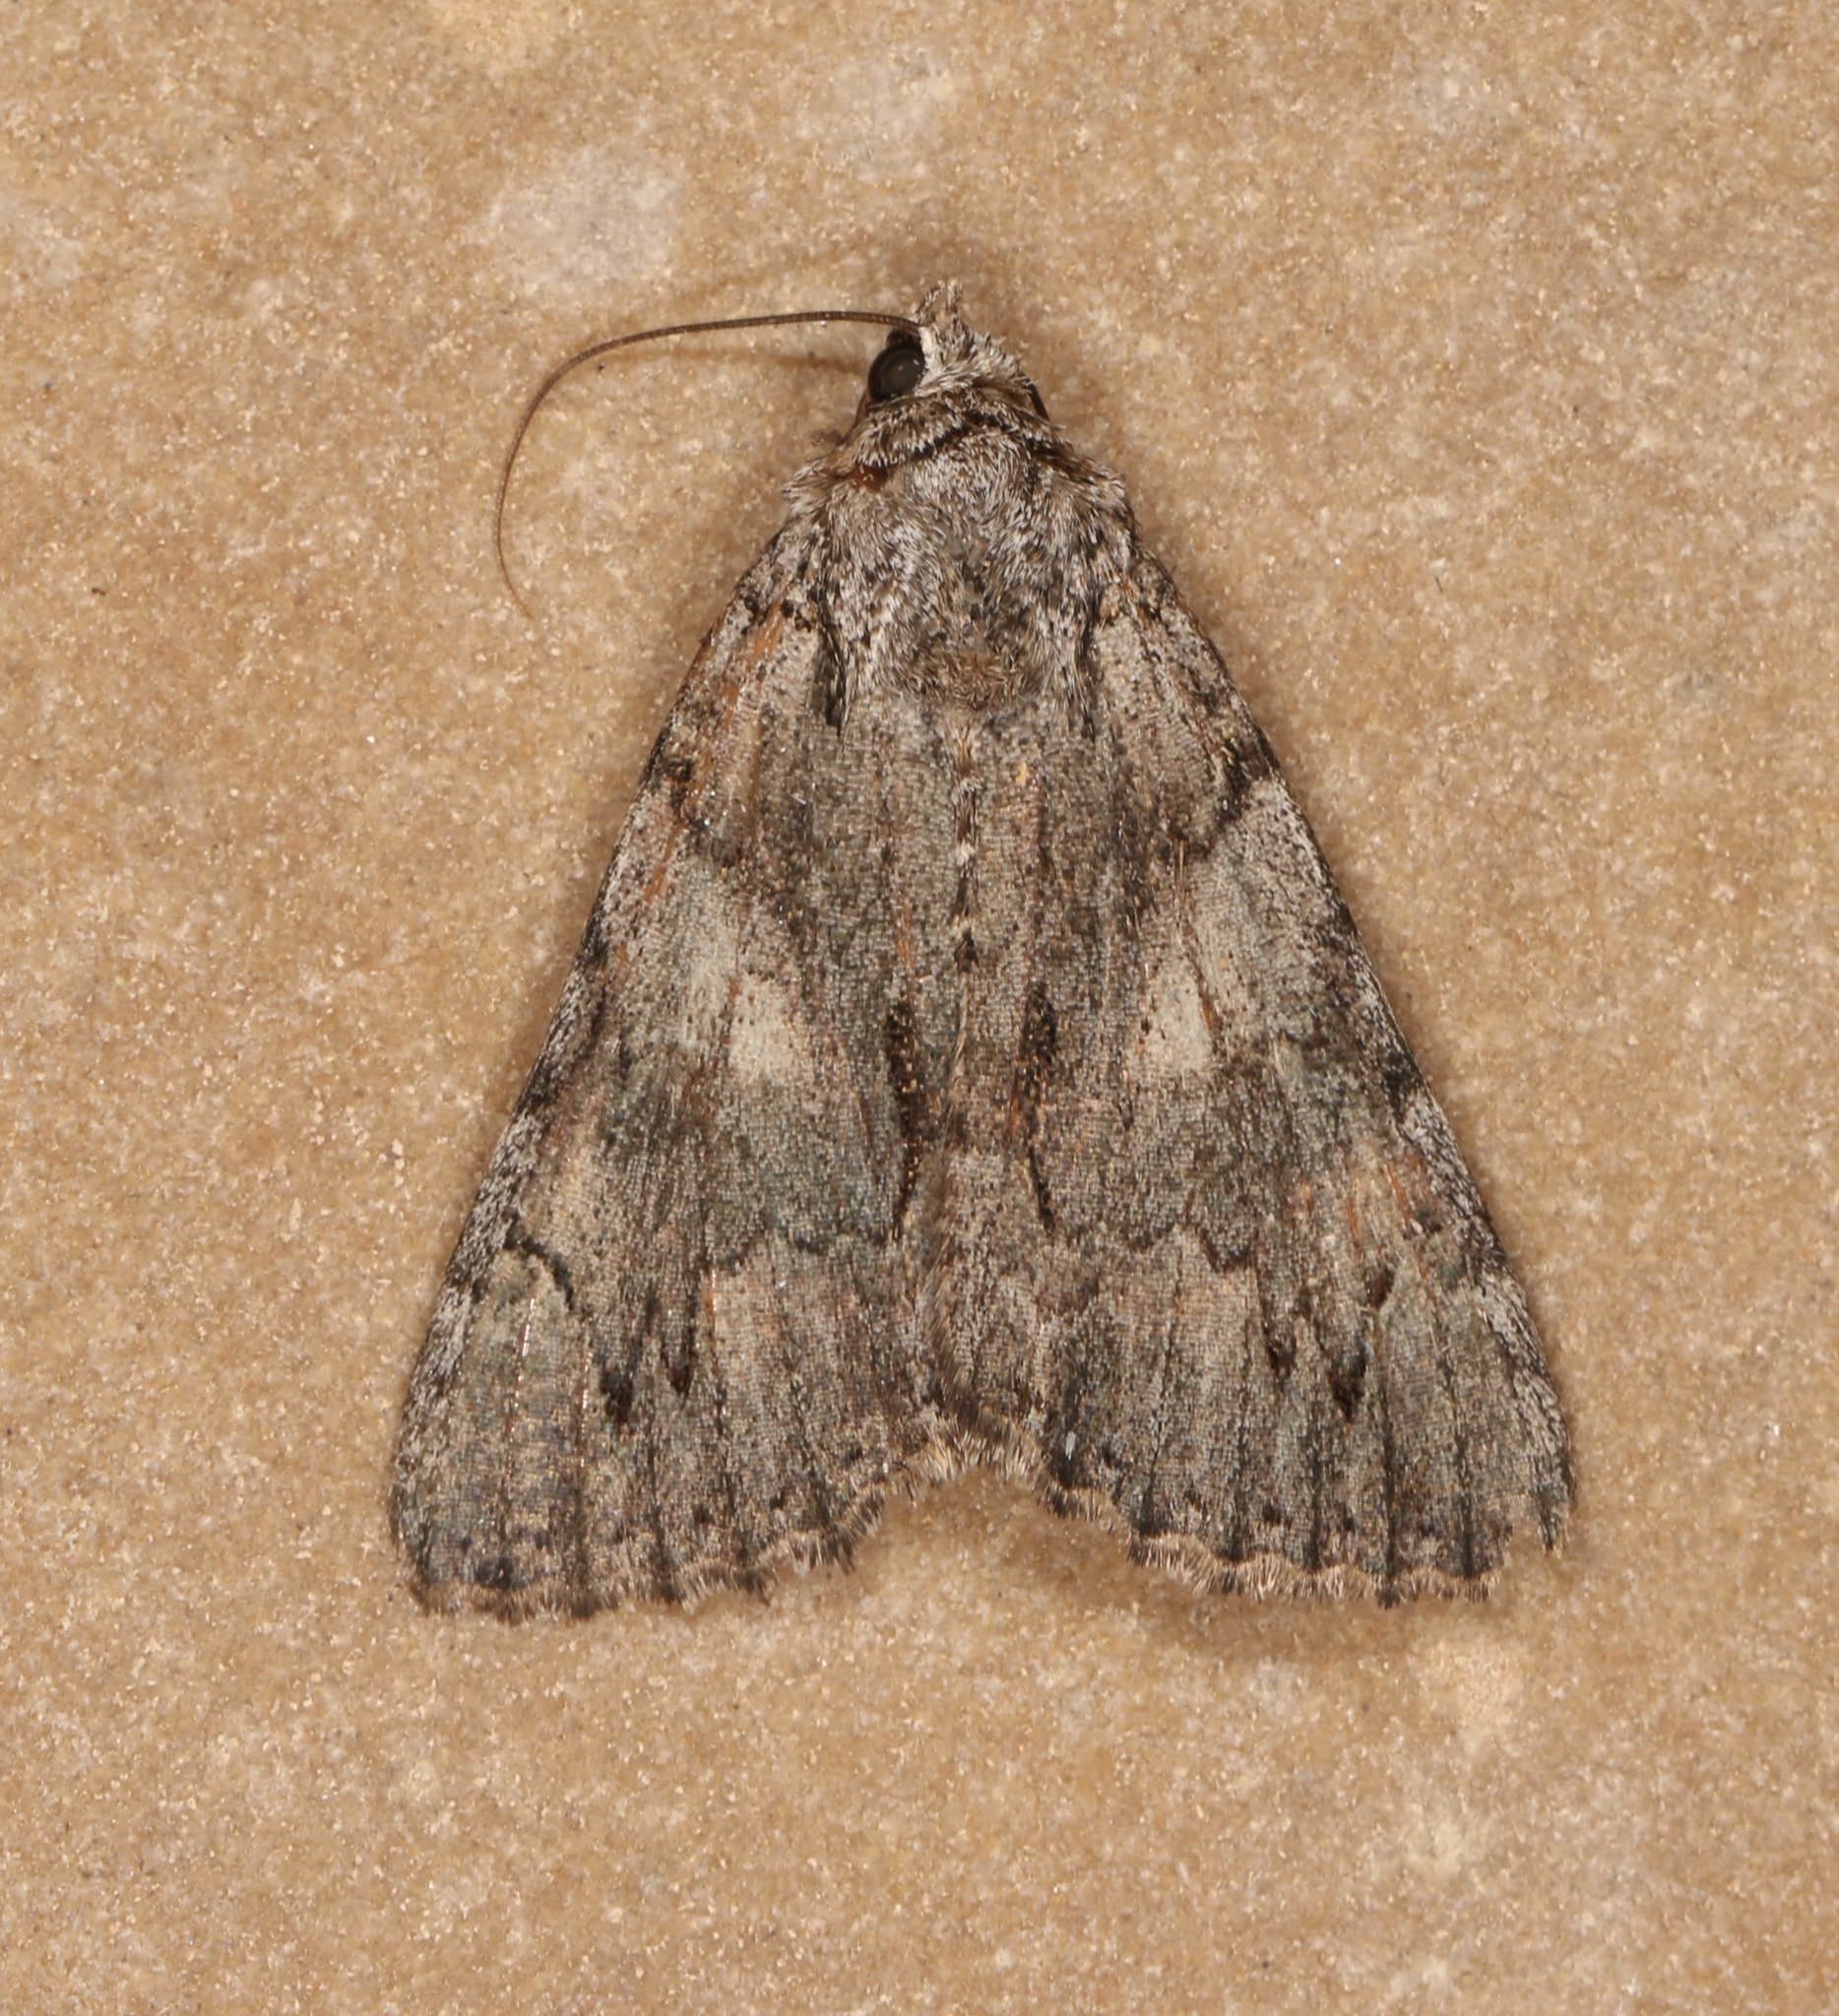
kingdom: Animalia
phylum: Arthropoda
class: Insecta
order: Lepidoptera
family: Erebidae
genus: Catocala
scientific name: Catocala verrilliana
